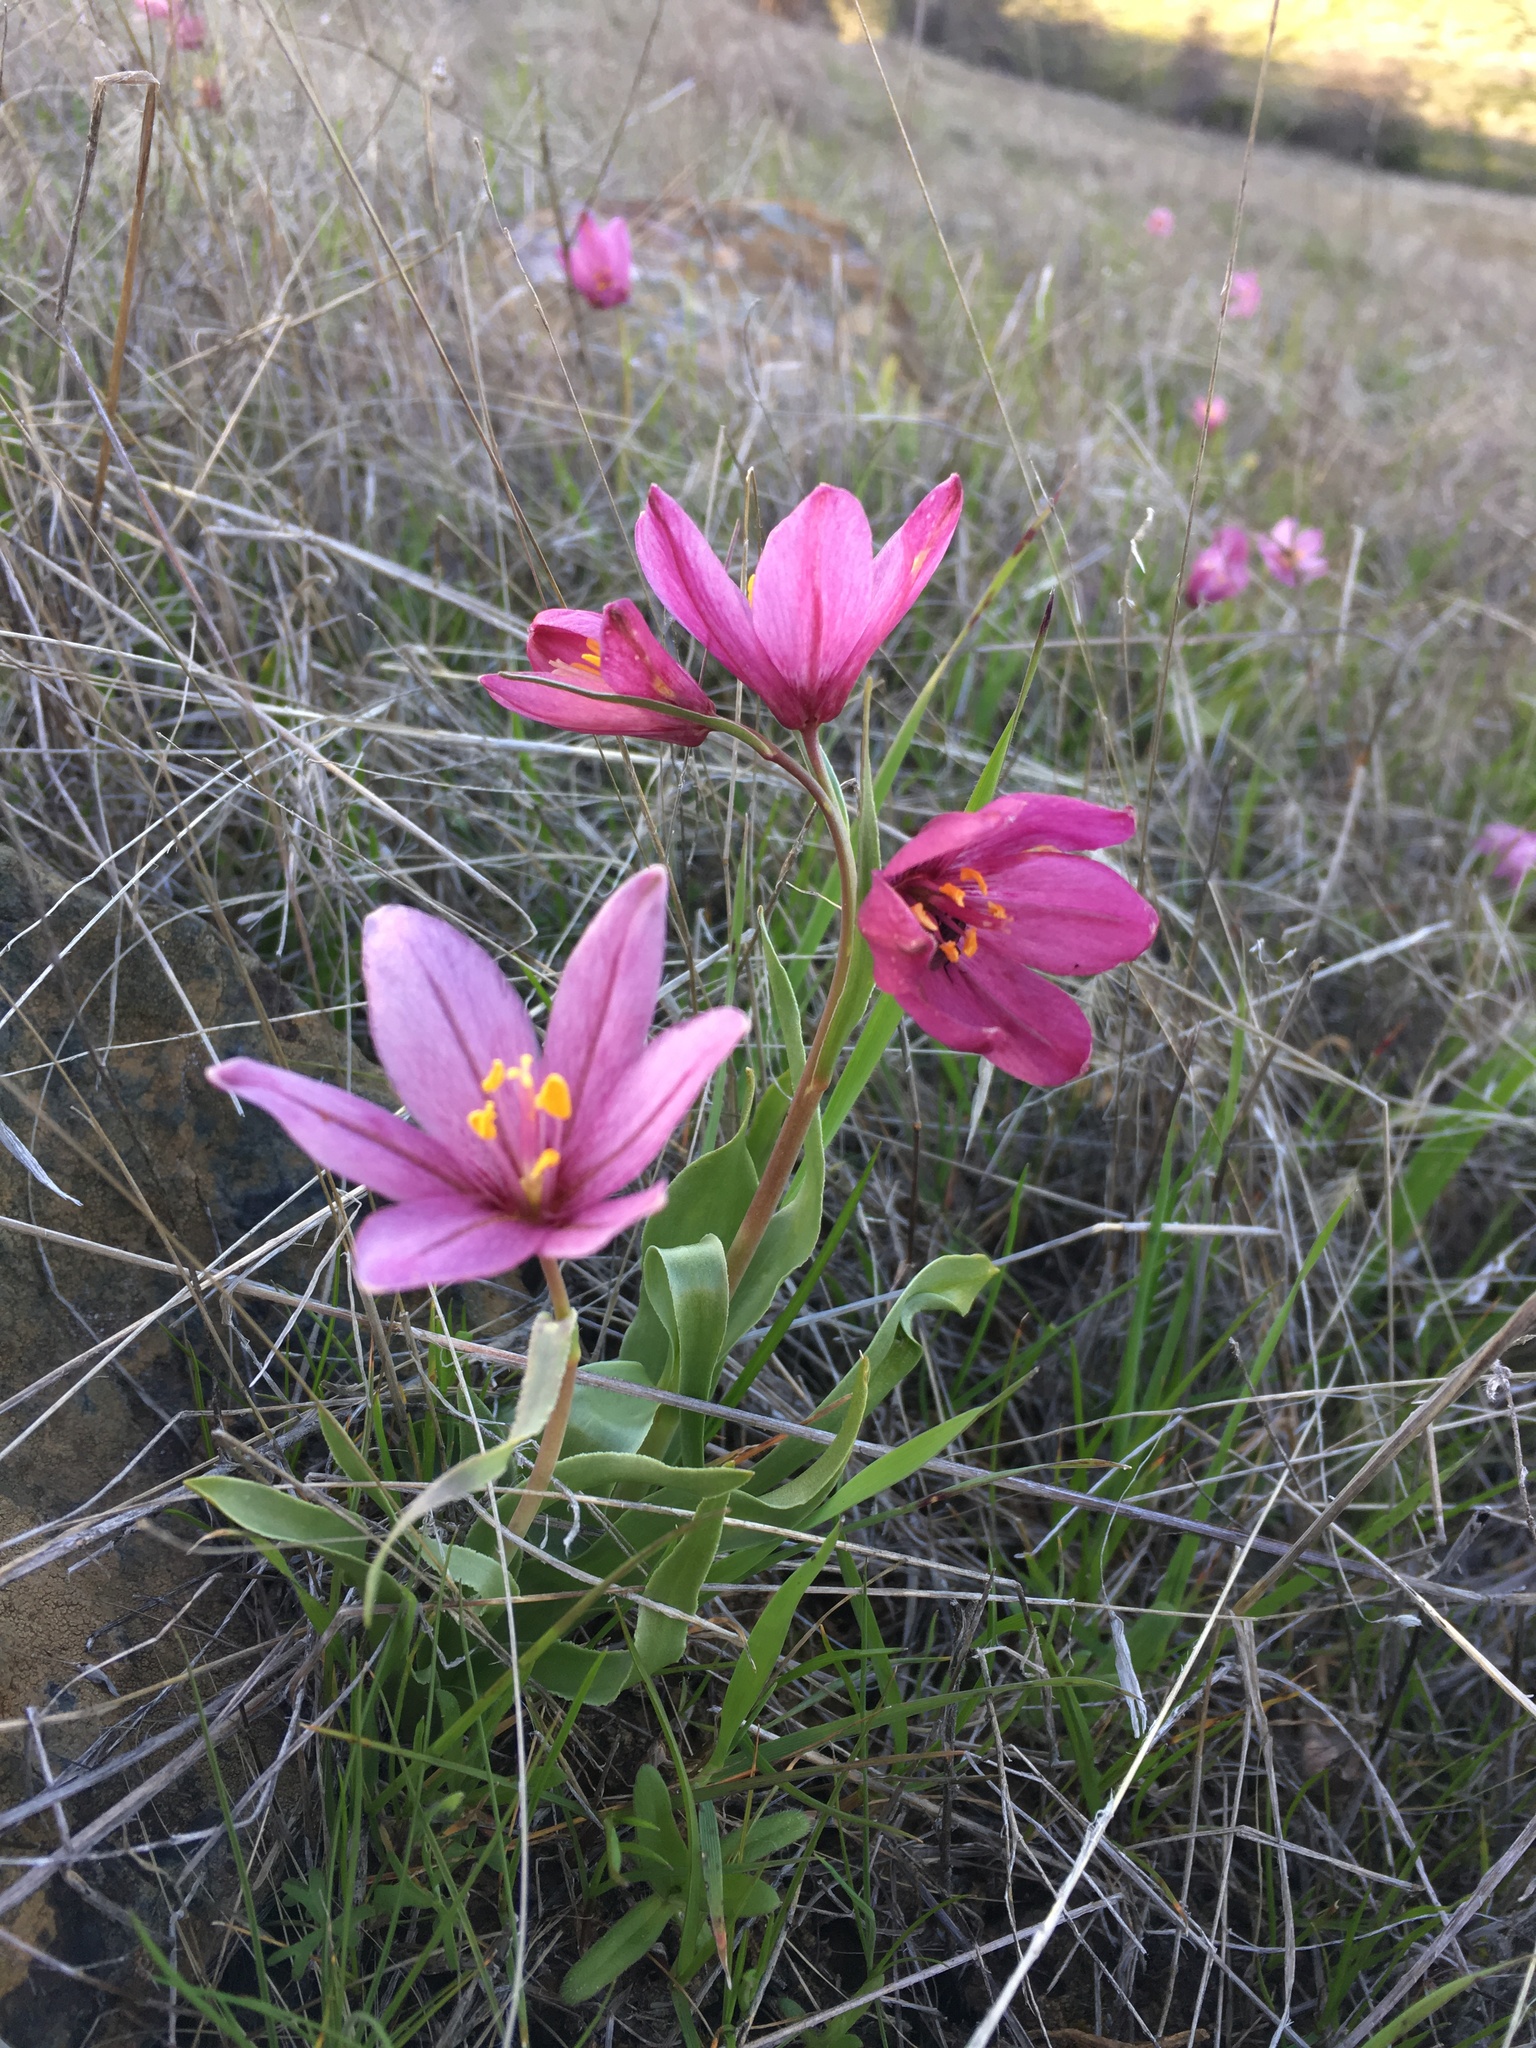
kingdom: Plantae
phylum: Tracheophyta
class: Liliopsida
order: Liliales
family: Liliaceae
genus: Fritillaria
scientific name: Fritillaria pluriflora
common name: Adobe-lily
